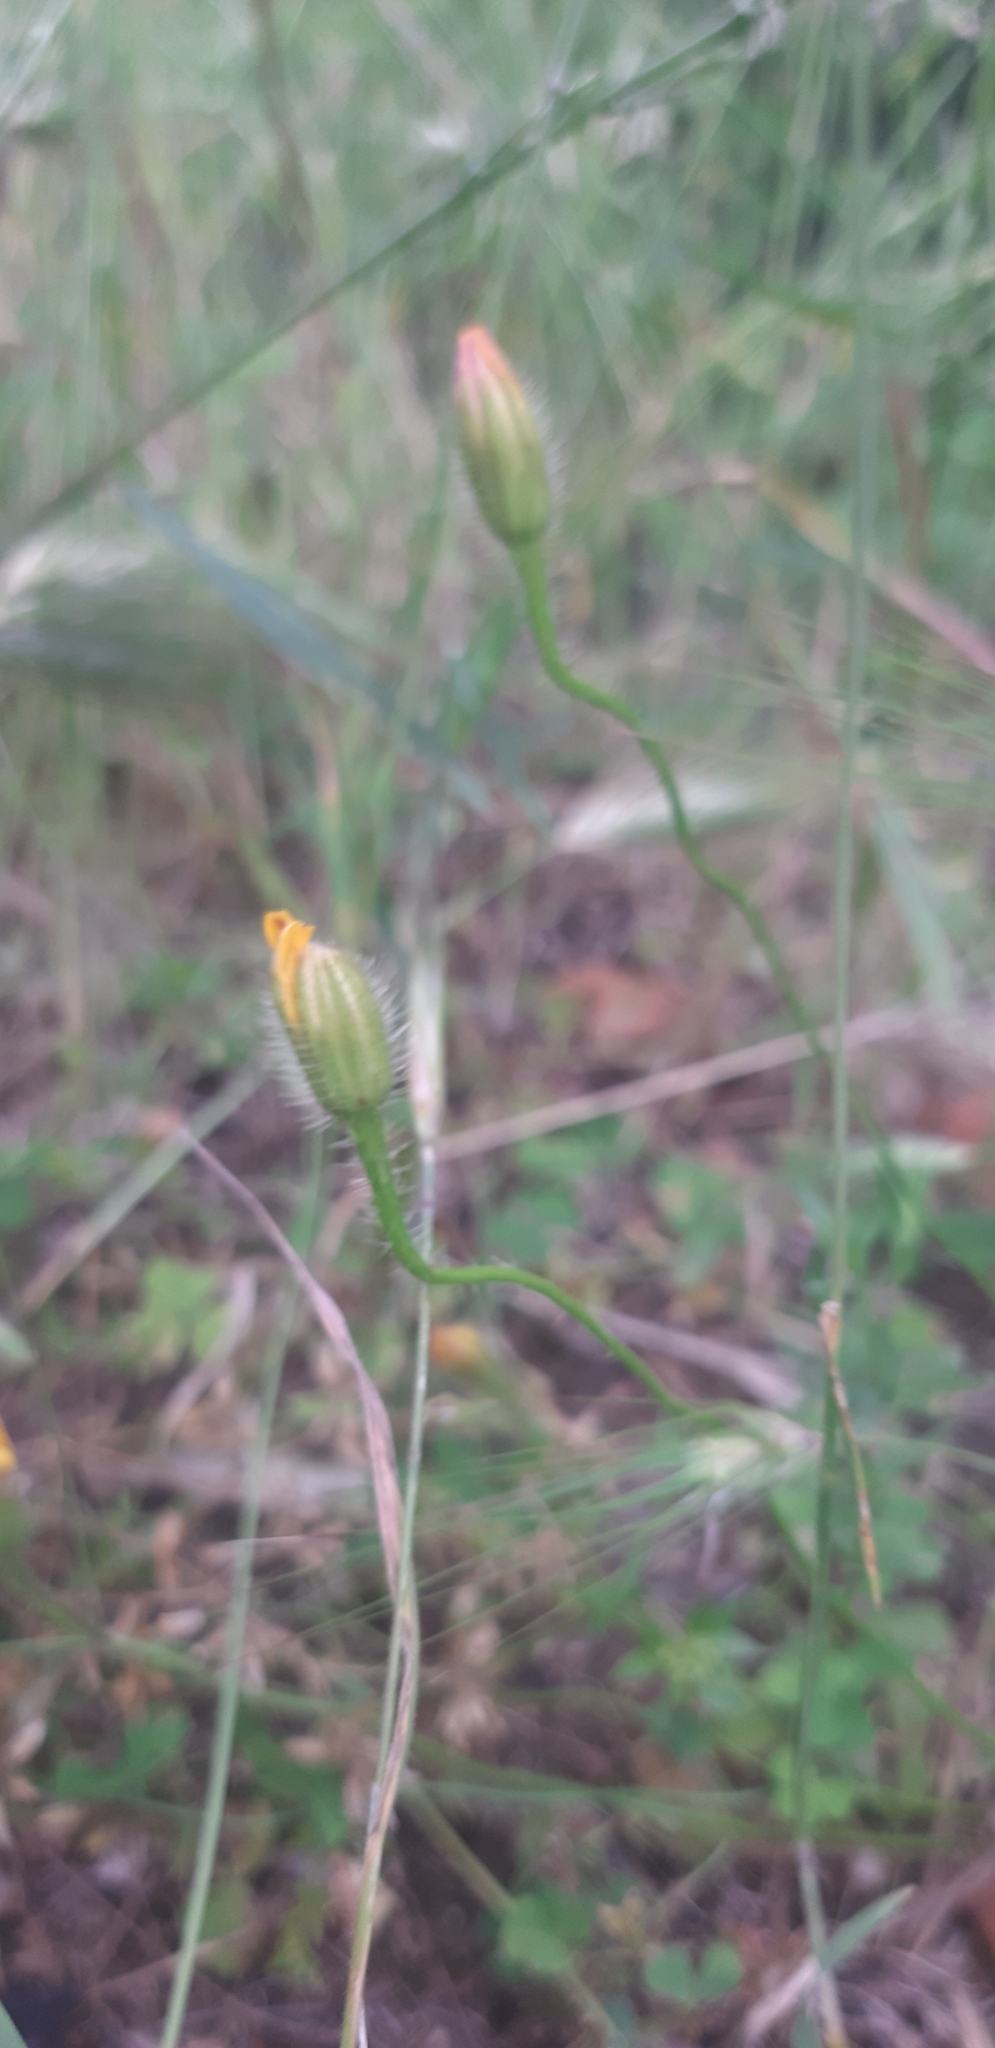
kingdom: Plantae
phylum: Tracheophyta
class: Magnoliopsida
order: Asterales
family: Asteraceae
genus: Achyrophorus
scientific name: Achyrophorus valdesii
